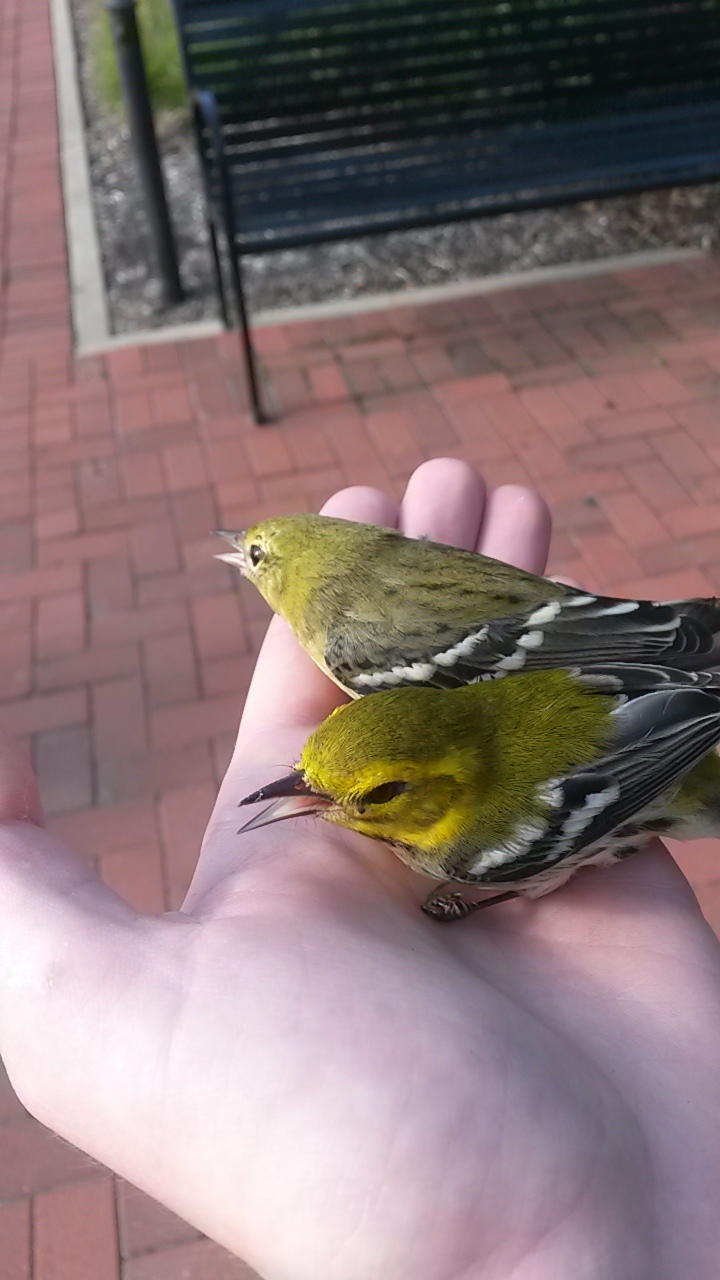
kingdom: Animalia
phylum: Chordata
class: Aves
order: Passeriformes
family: Parulidae
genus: Setophaga
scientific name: Setophaga virens
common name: Black-throated green warbler
